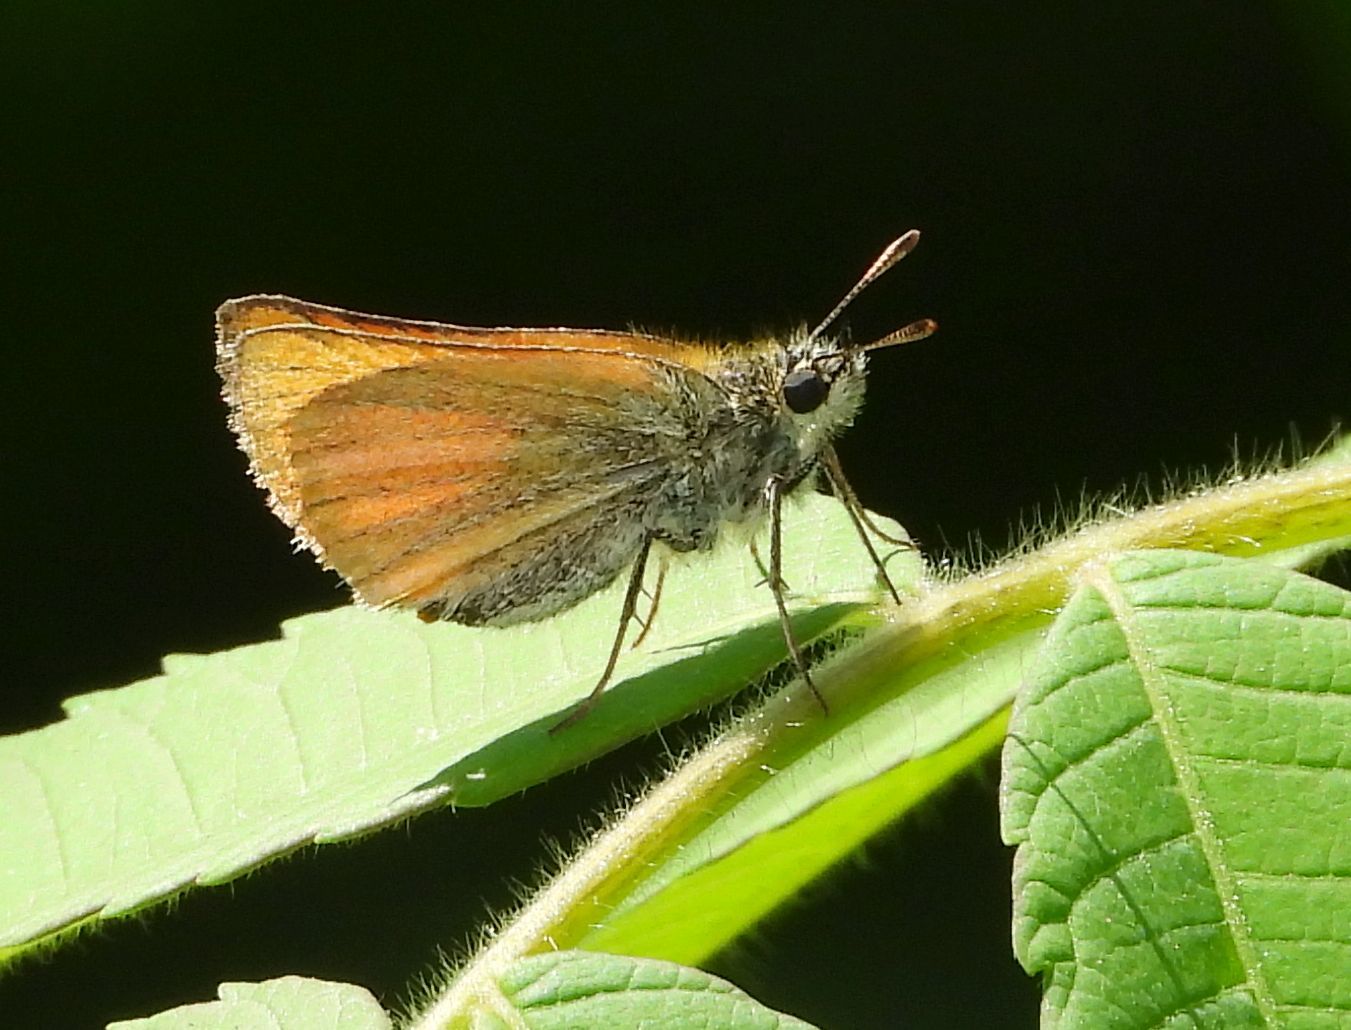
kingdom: Animalia
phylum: Arthropoda
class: Insecta
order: Lepidoptera
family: Hesperiidae
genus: Thymelicus
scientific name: Thymelicus lineola
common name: Essex skipper
